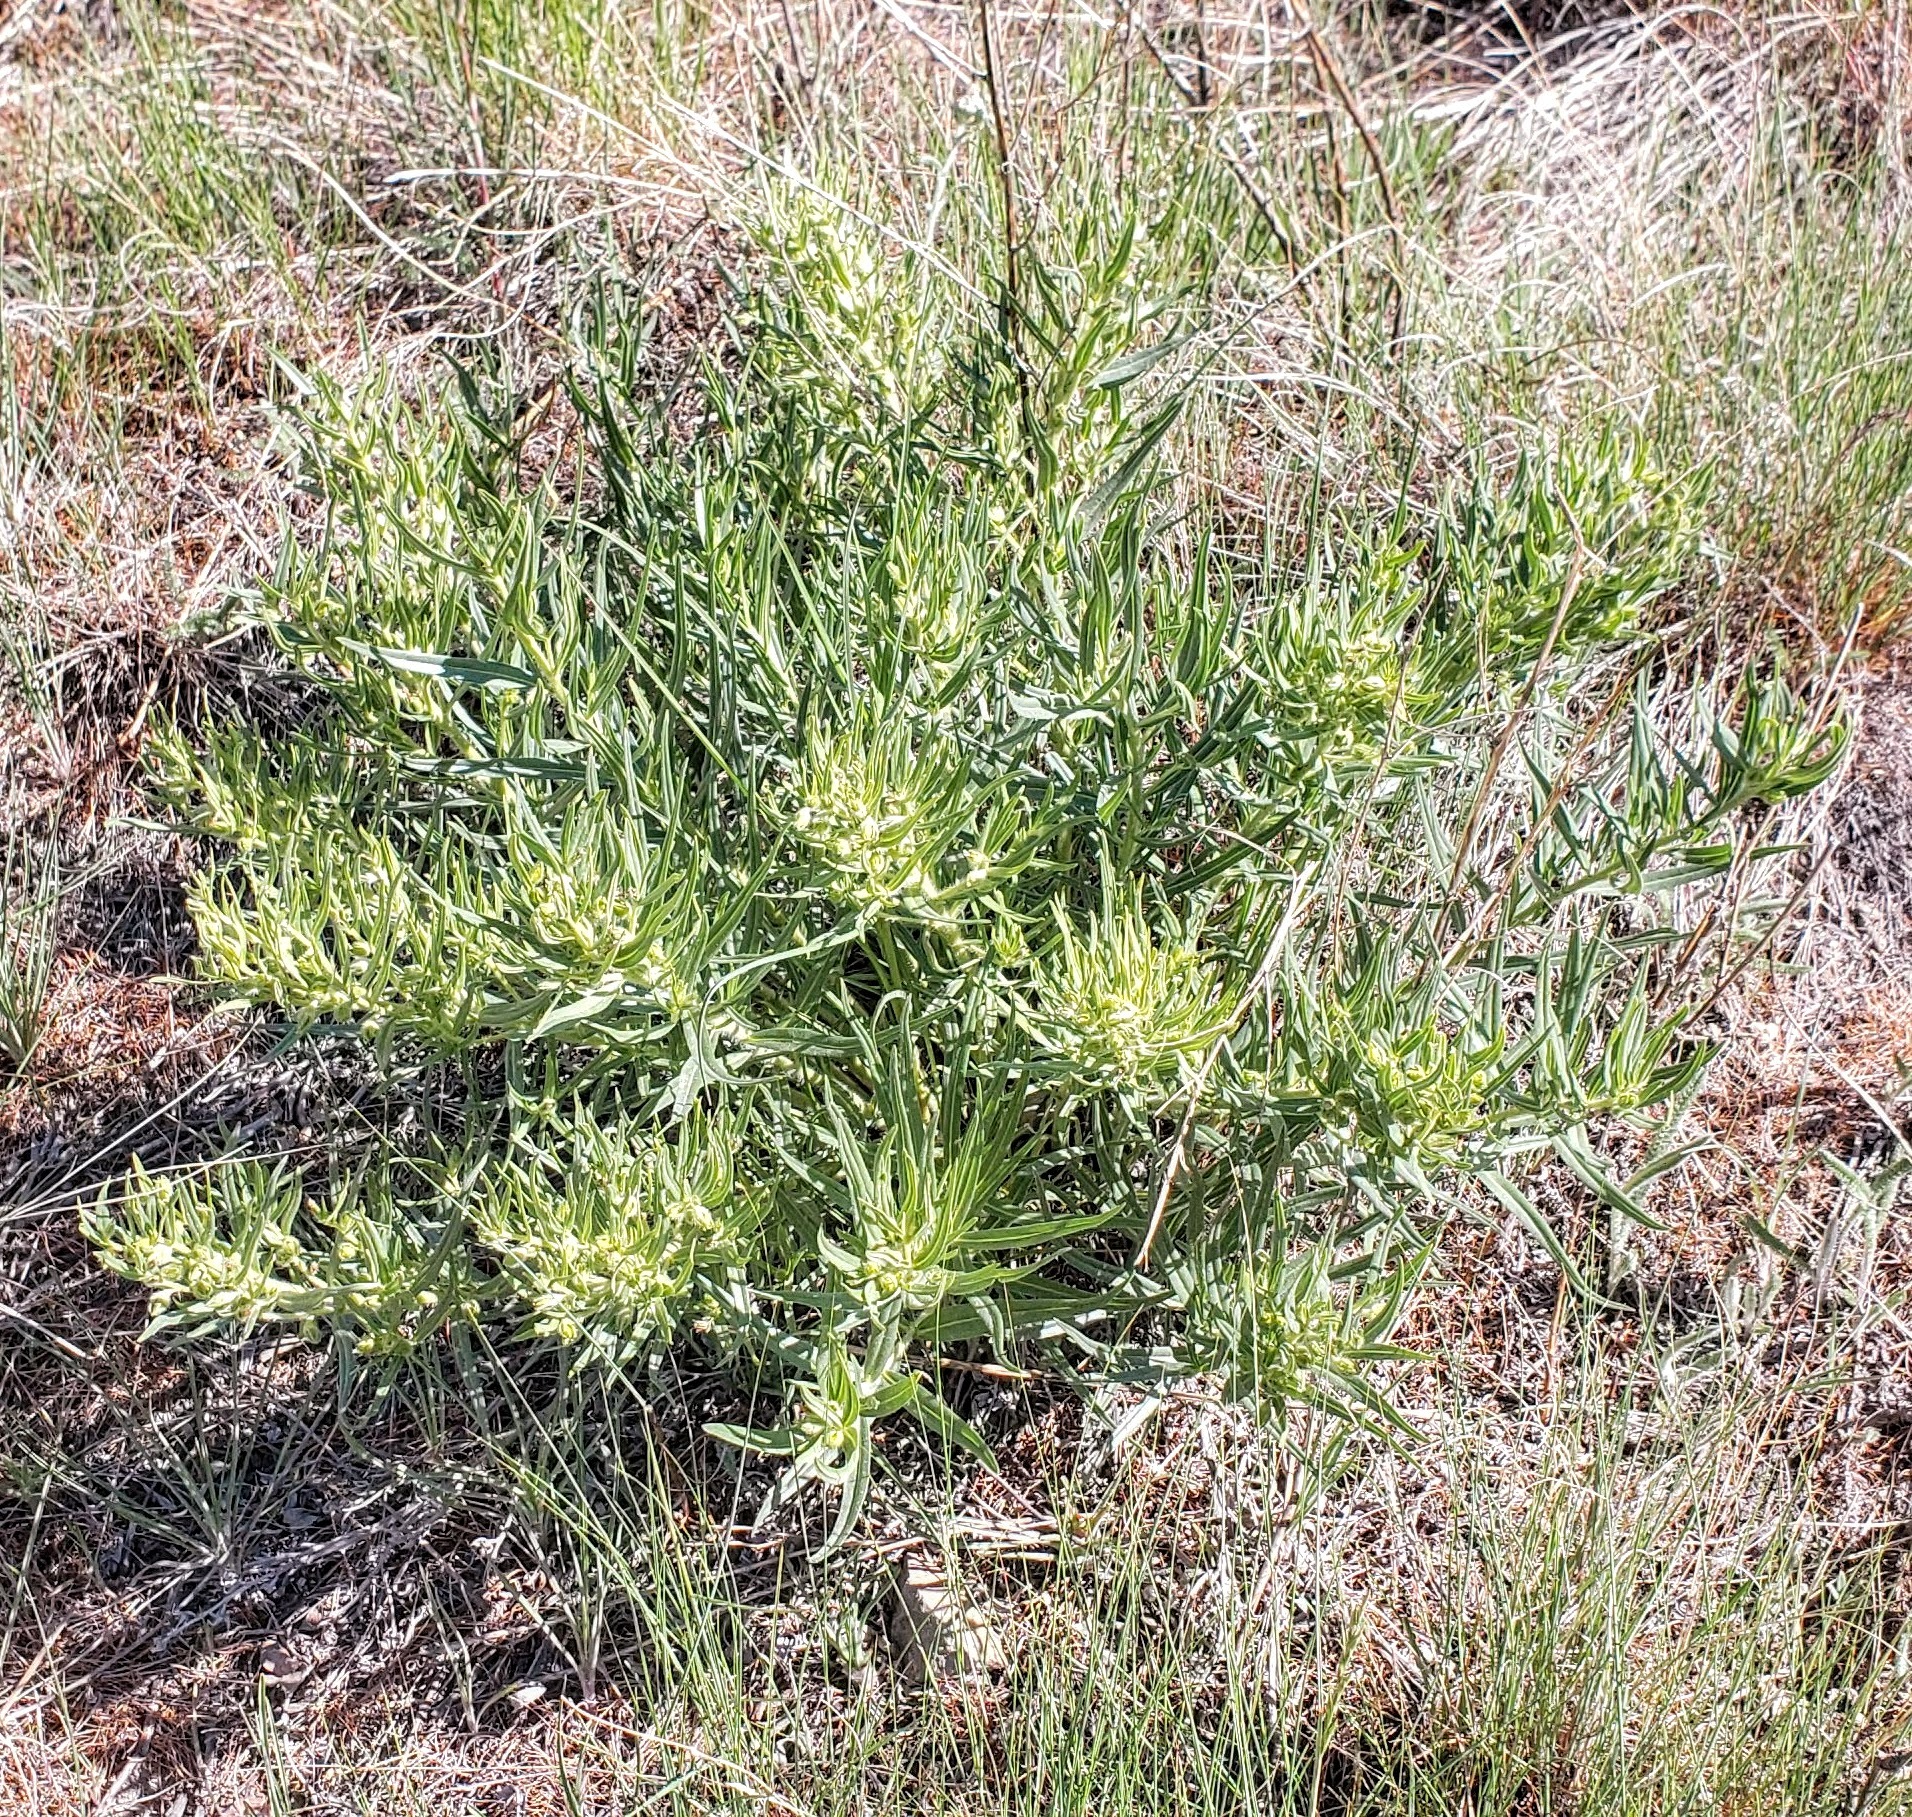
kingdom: Plantae
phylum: Tracheophyta
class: Magnoliopsida
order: Boraginales
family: Boraginaceae
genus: Lithospermum
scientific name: Lithospermum ruderale
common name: Western gromwell
